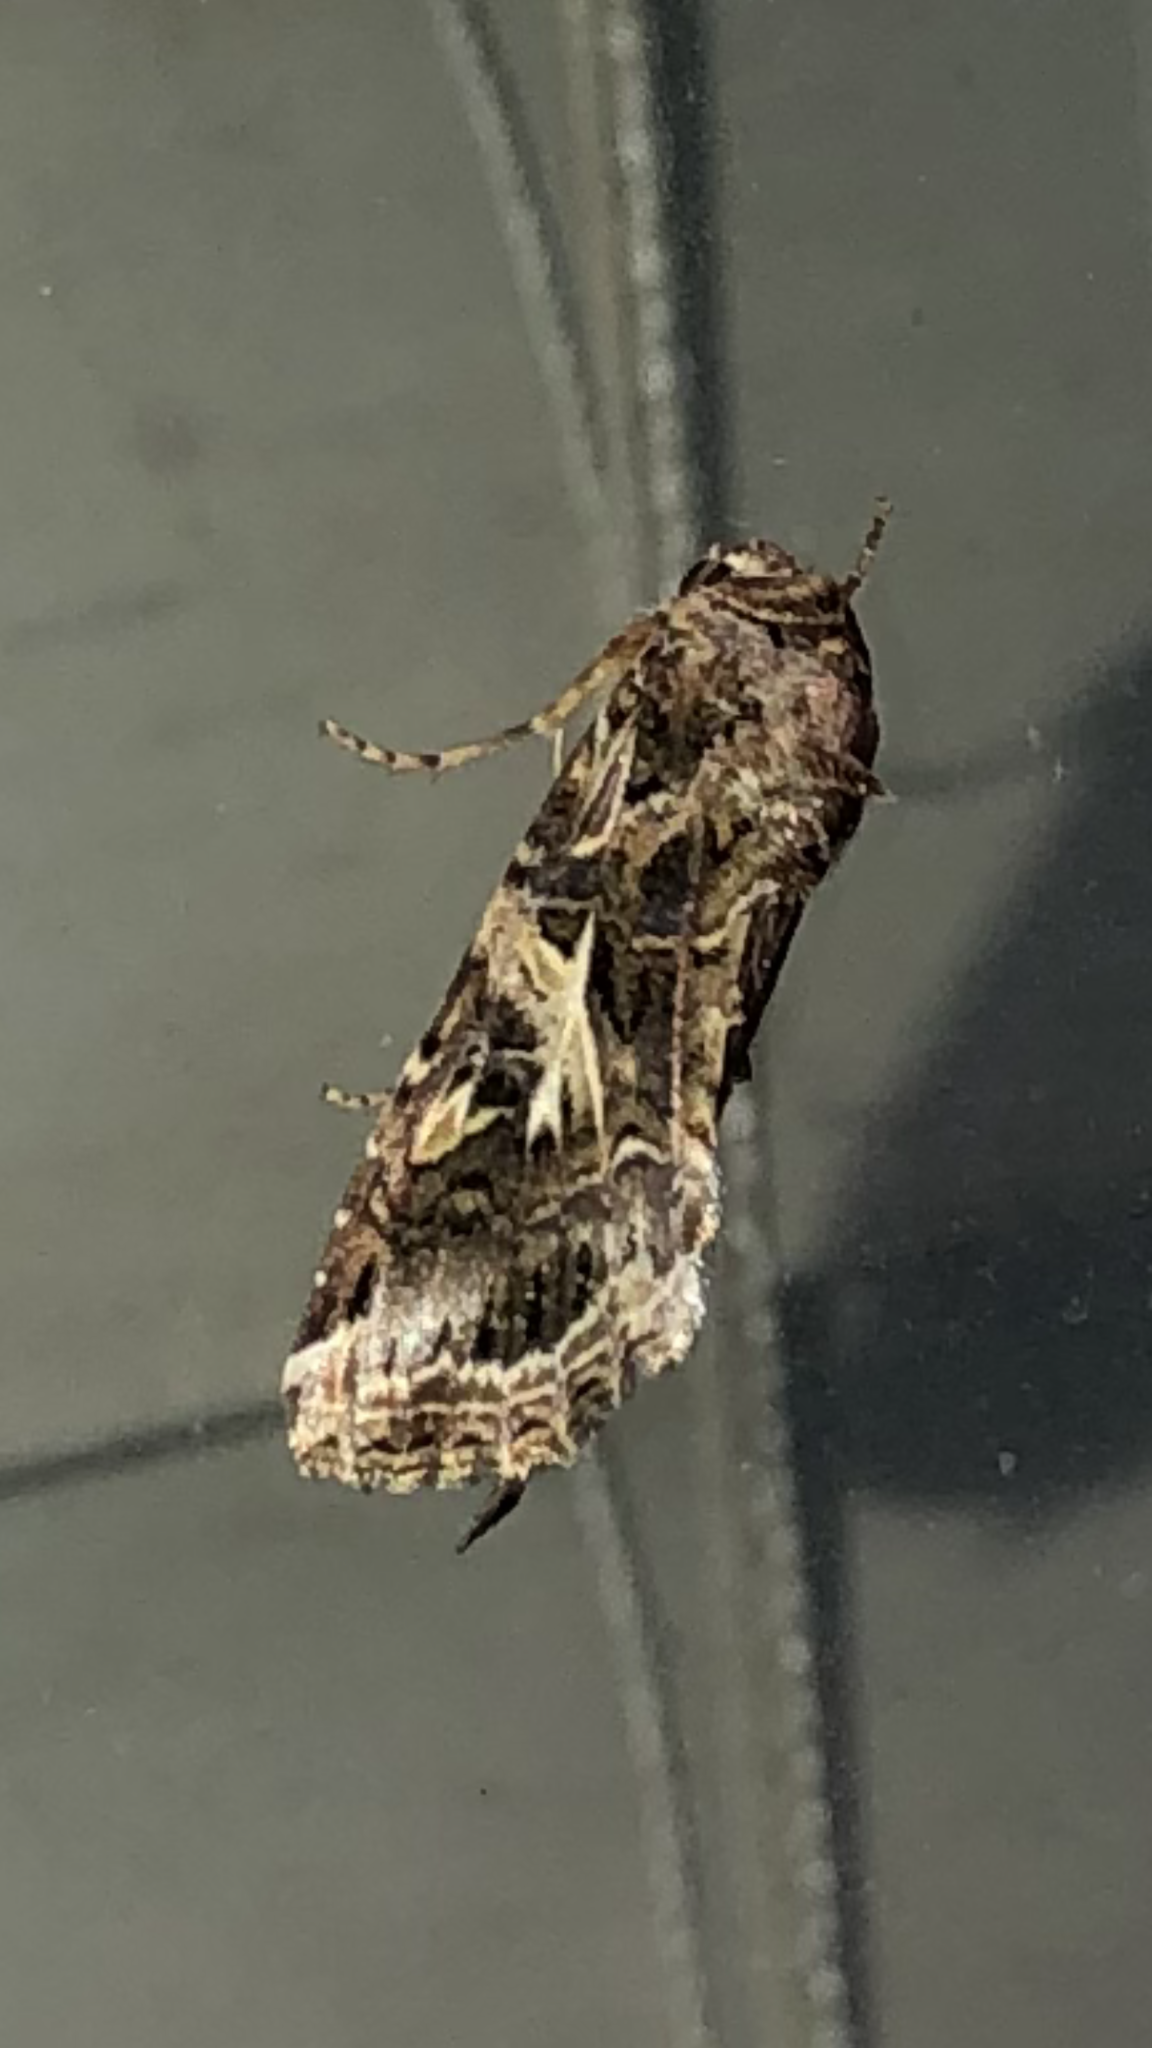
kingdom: Animalia
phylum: Arthropoda
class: Insecta
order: Lepidoptera
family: Noctuidae
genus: Spodoptera
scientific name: Spodoptera ornithogalli
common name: Yellow-striped armyworm
